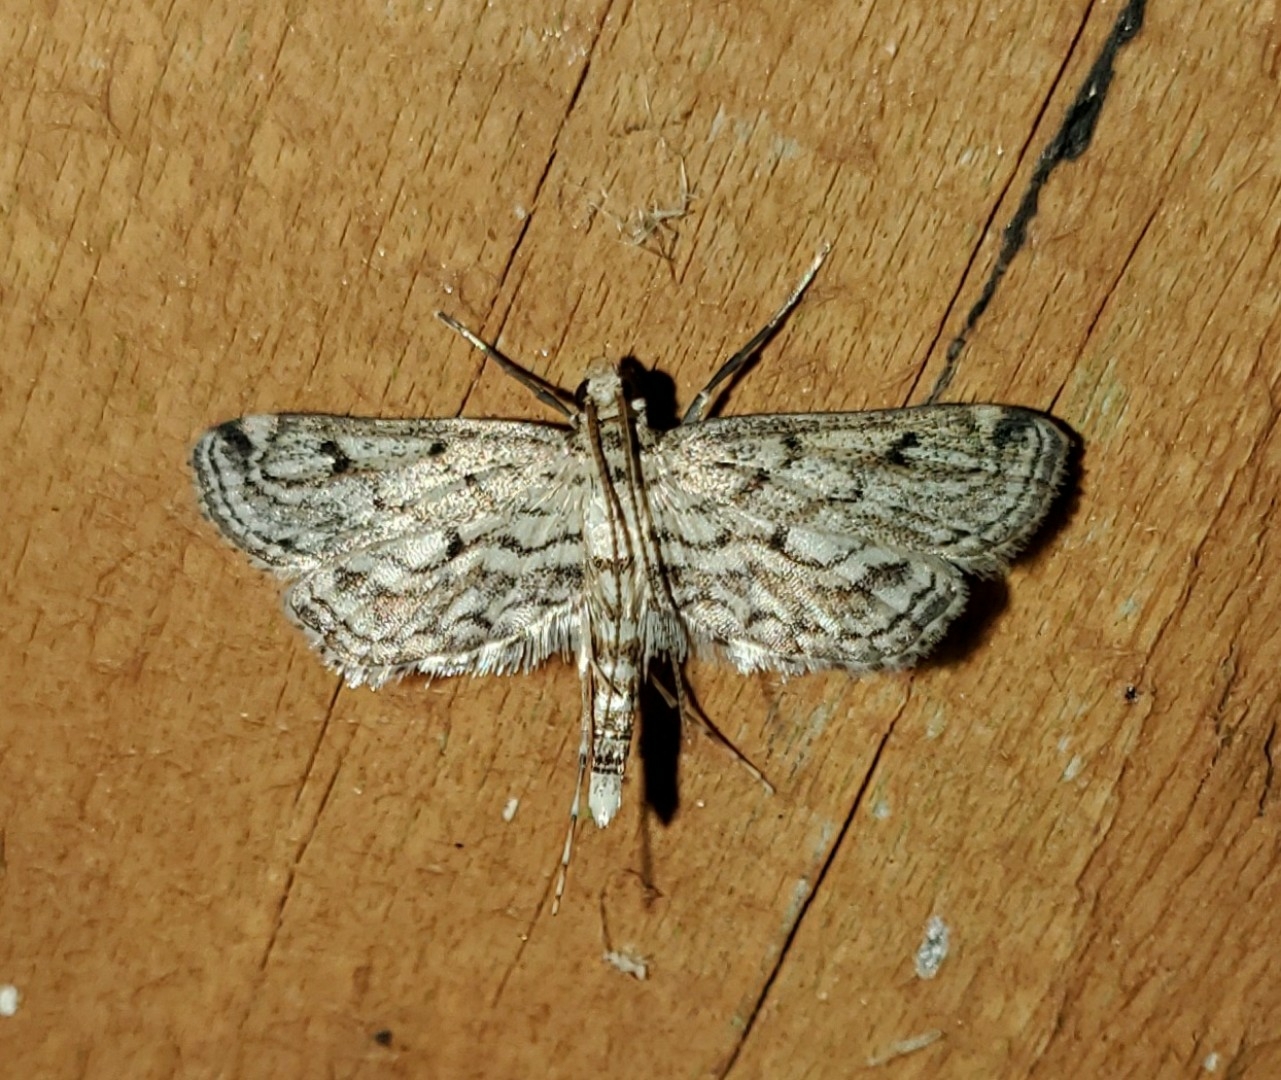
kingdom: Animalia
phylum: Arthropoda
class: Insecta
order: Lepidoptera
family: Crambidae
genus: Parapoynx
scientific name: Parapoynx allionealis
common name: Bladderwort casemaker
